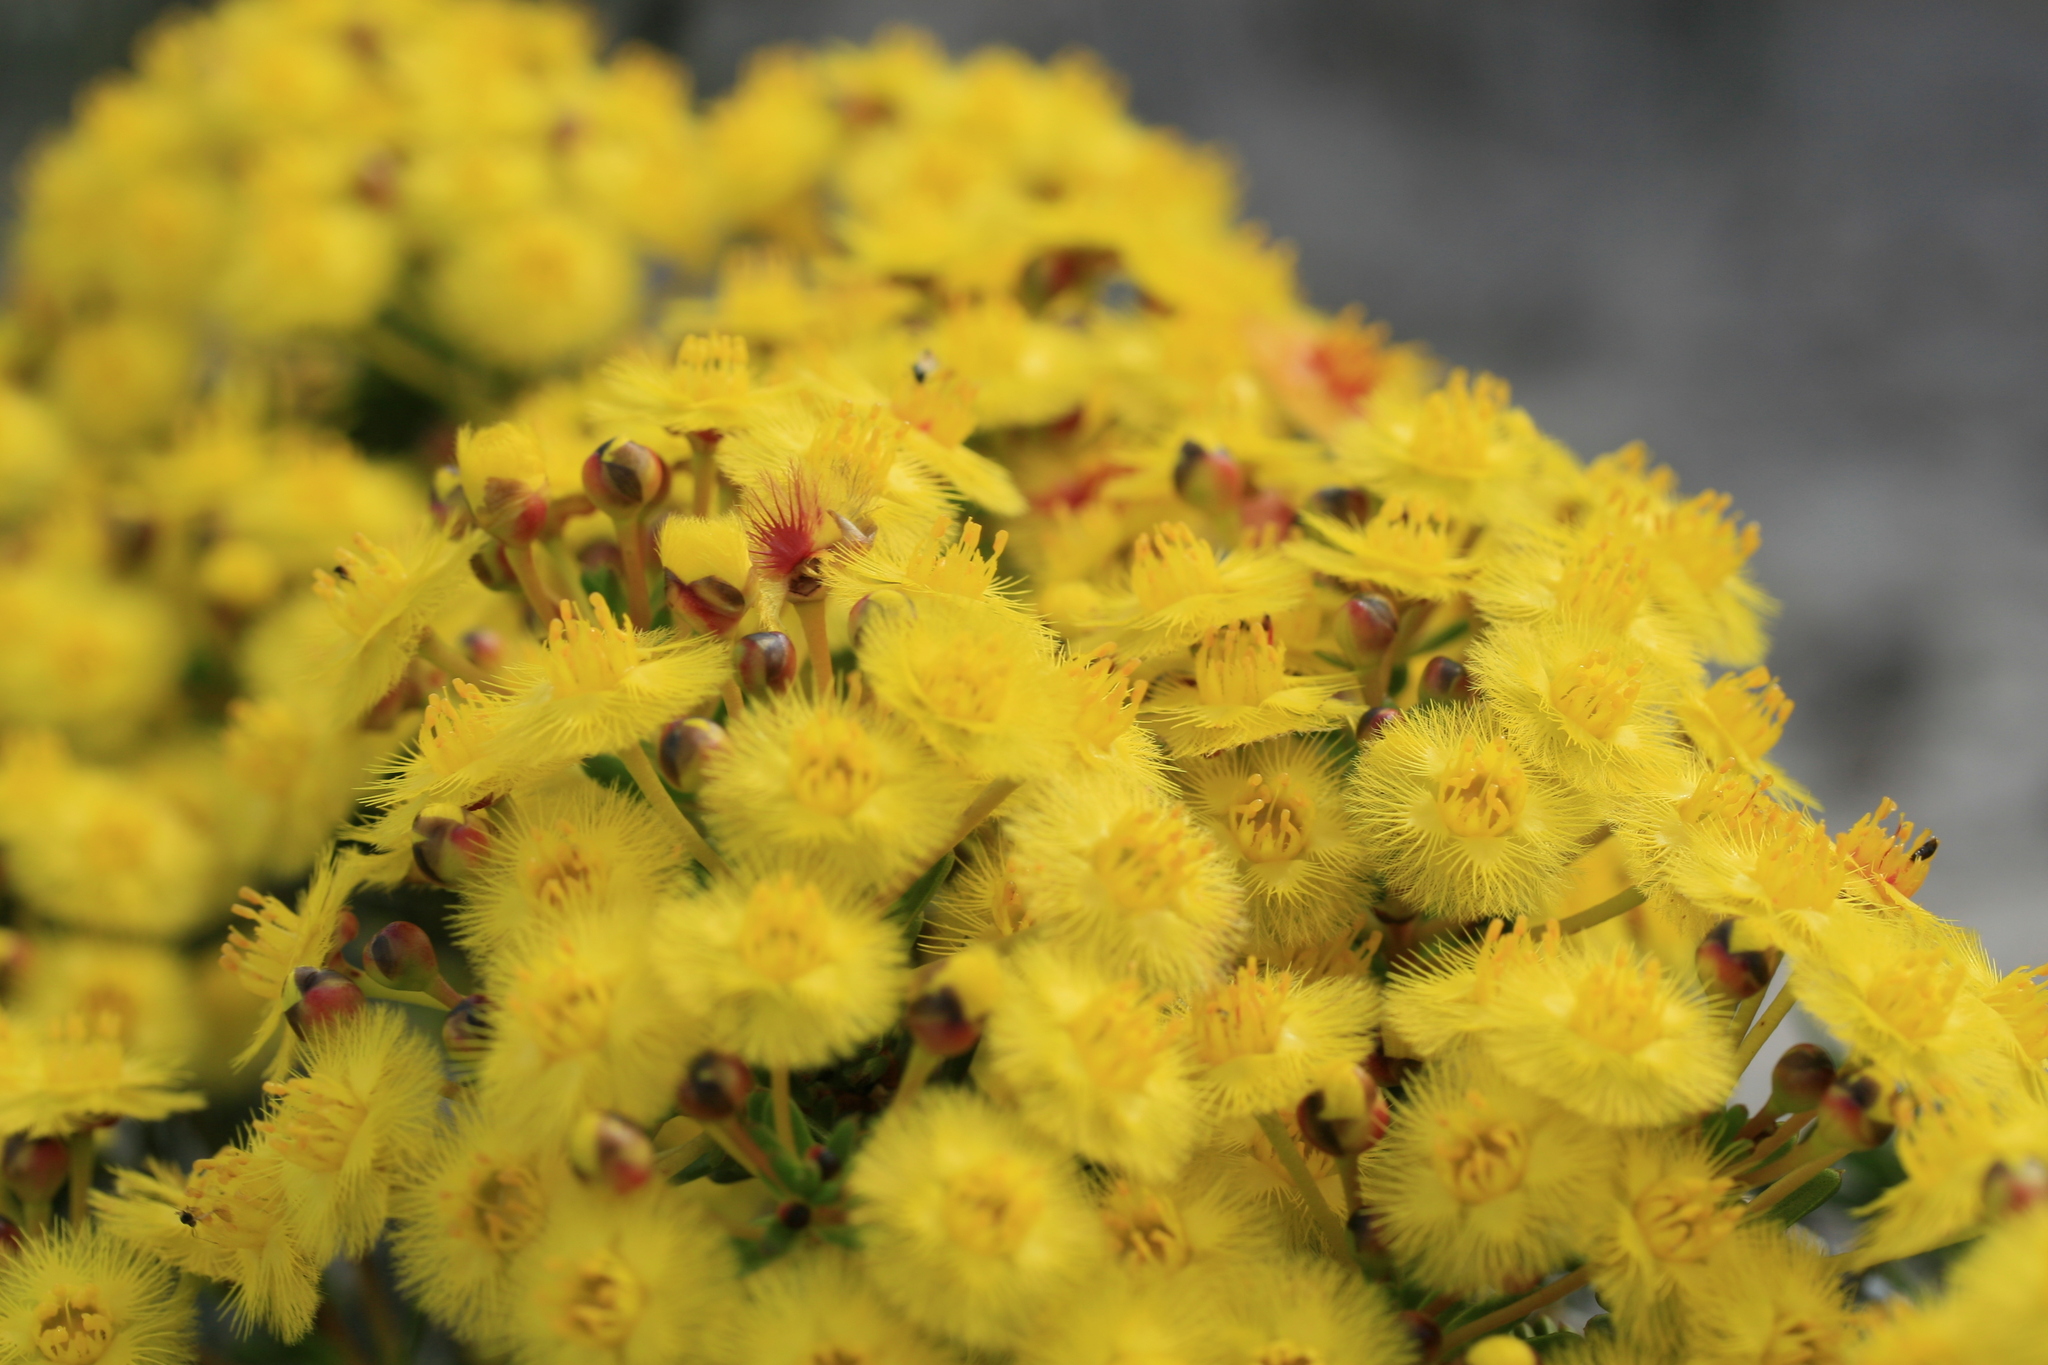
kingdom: Plantae
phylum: Tracheophyta
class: Magnoliopsida
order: Myrtales
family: Myrtaceae
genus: Verticordia
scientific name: Verticordia nobilis
